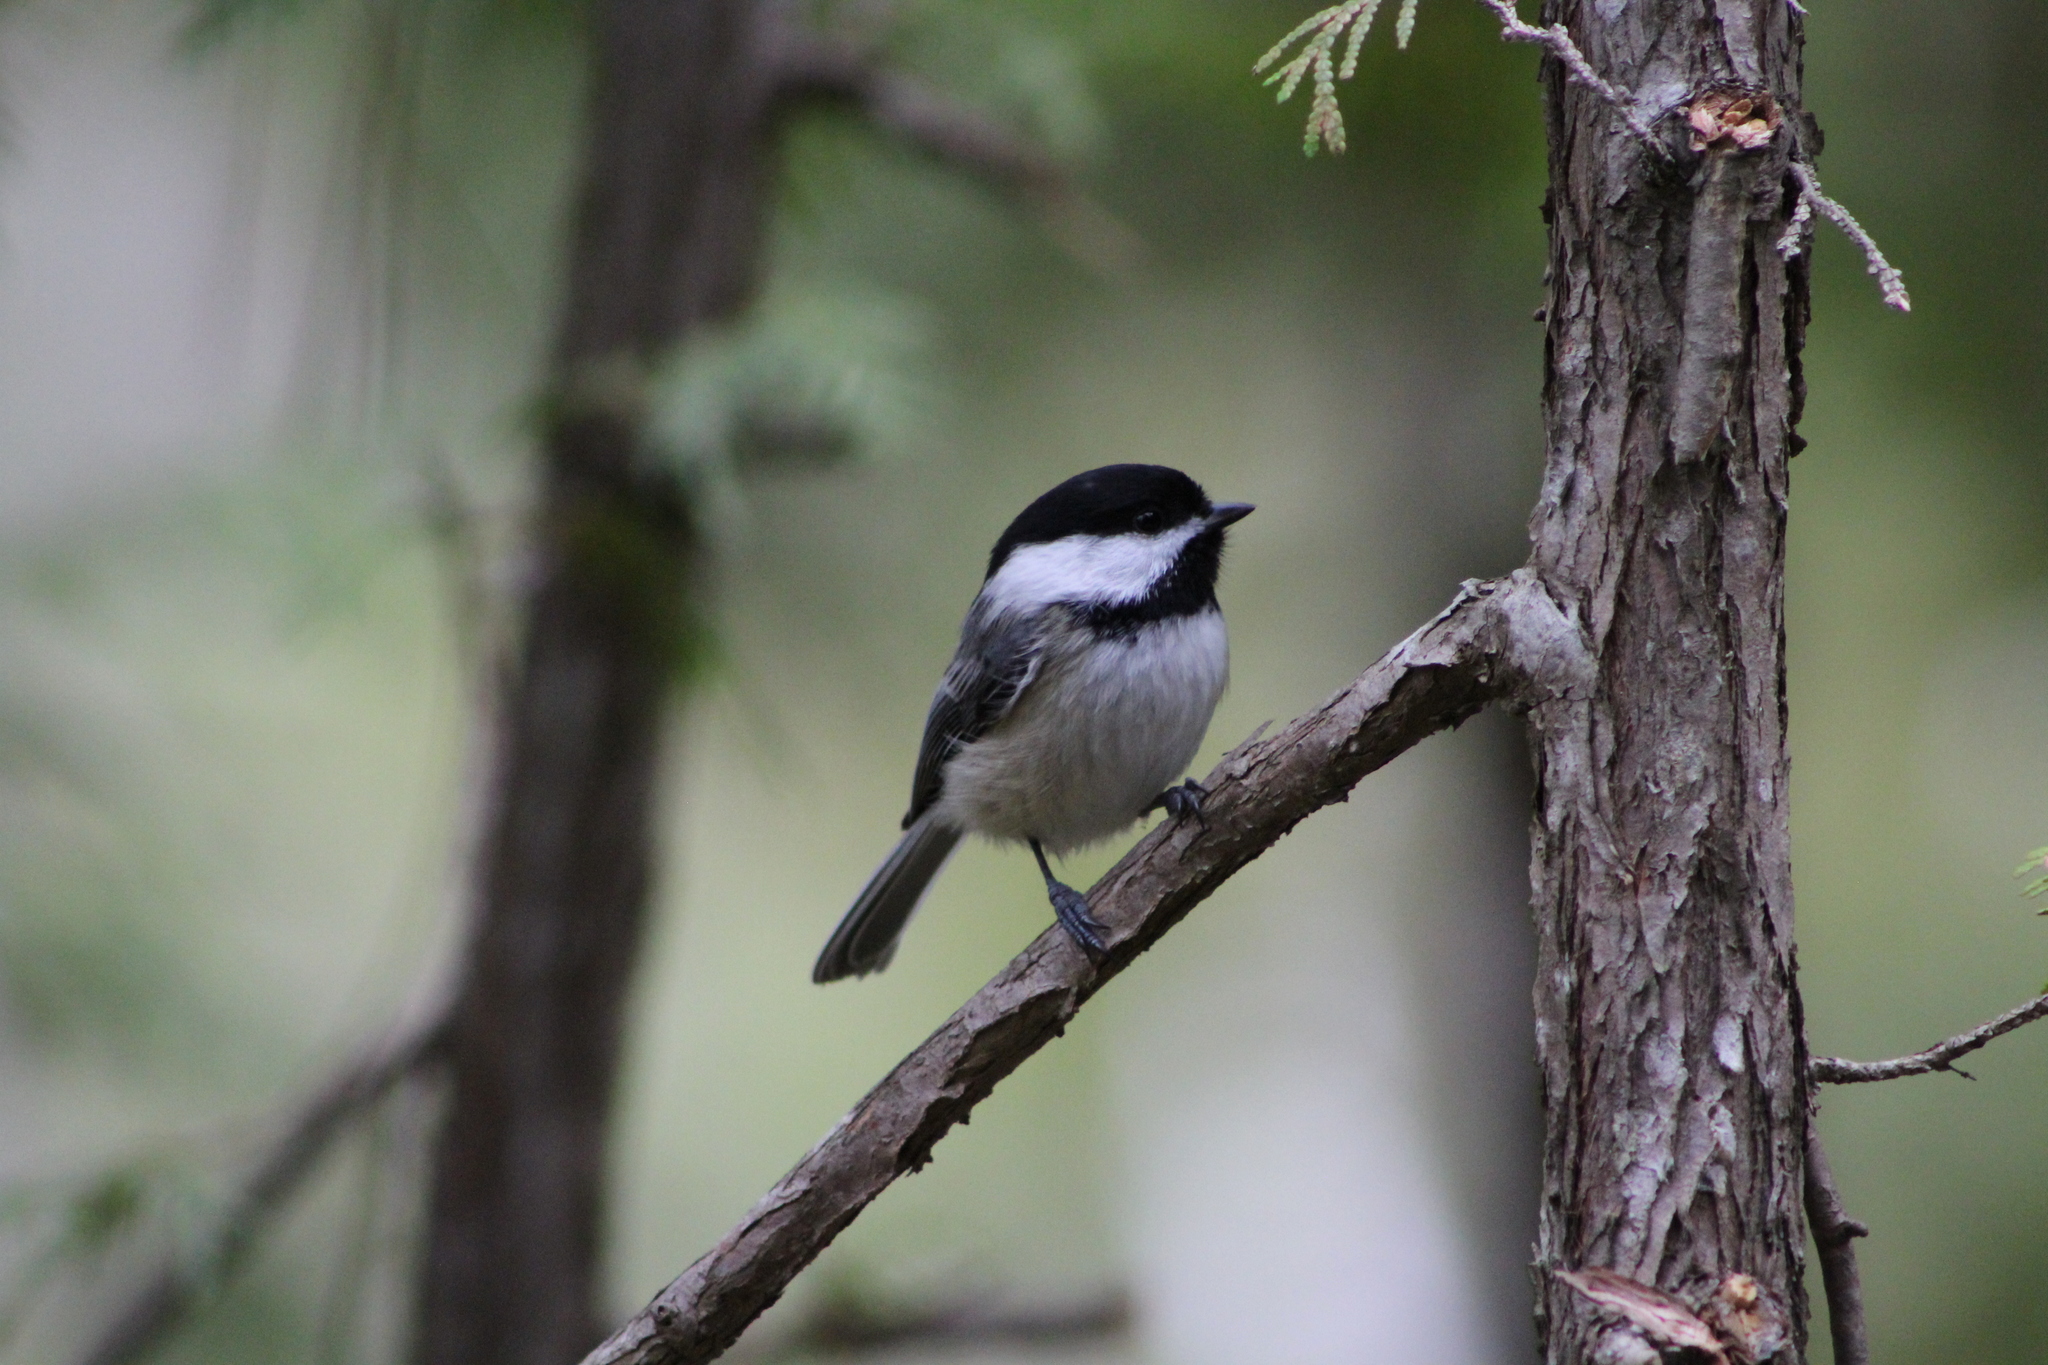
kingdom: Animalia
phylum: Chordata
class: Aves
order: Passeriformes
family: Paridae
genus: Poecile
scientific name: Poecile atricapillus
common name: Black-capped chickadee
